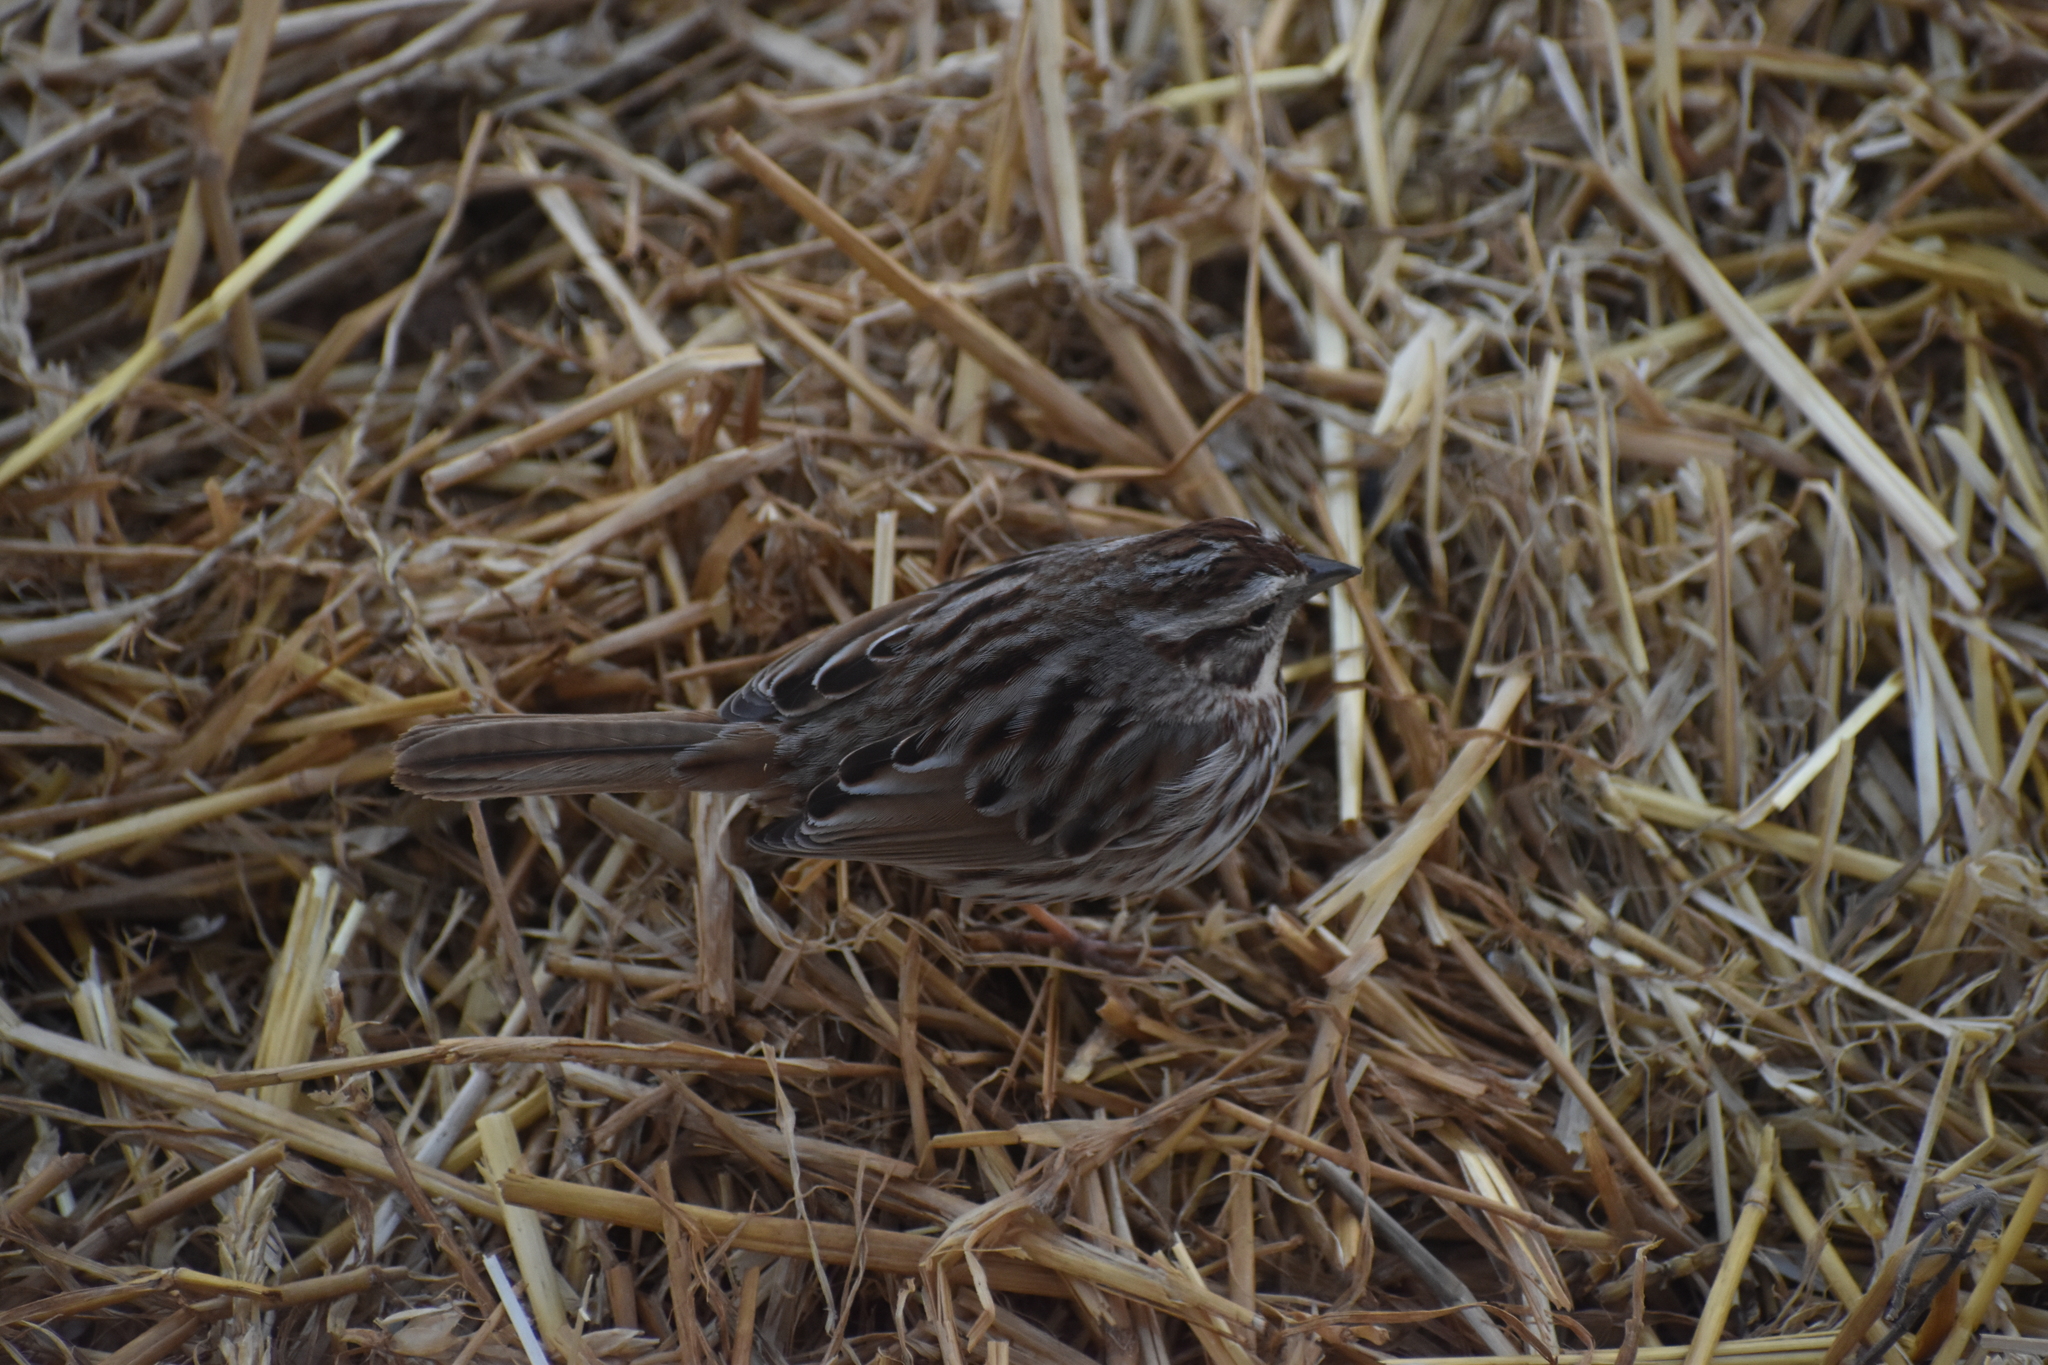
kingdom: Animalia
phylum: Chordata
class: Aves
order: Passeriformes
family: Passerellidae
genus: Melospiza
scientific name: Melospiza melodia
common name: Song sparrow
